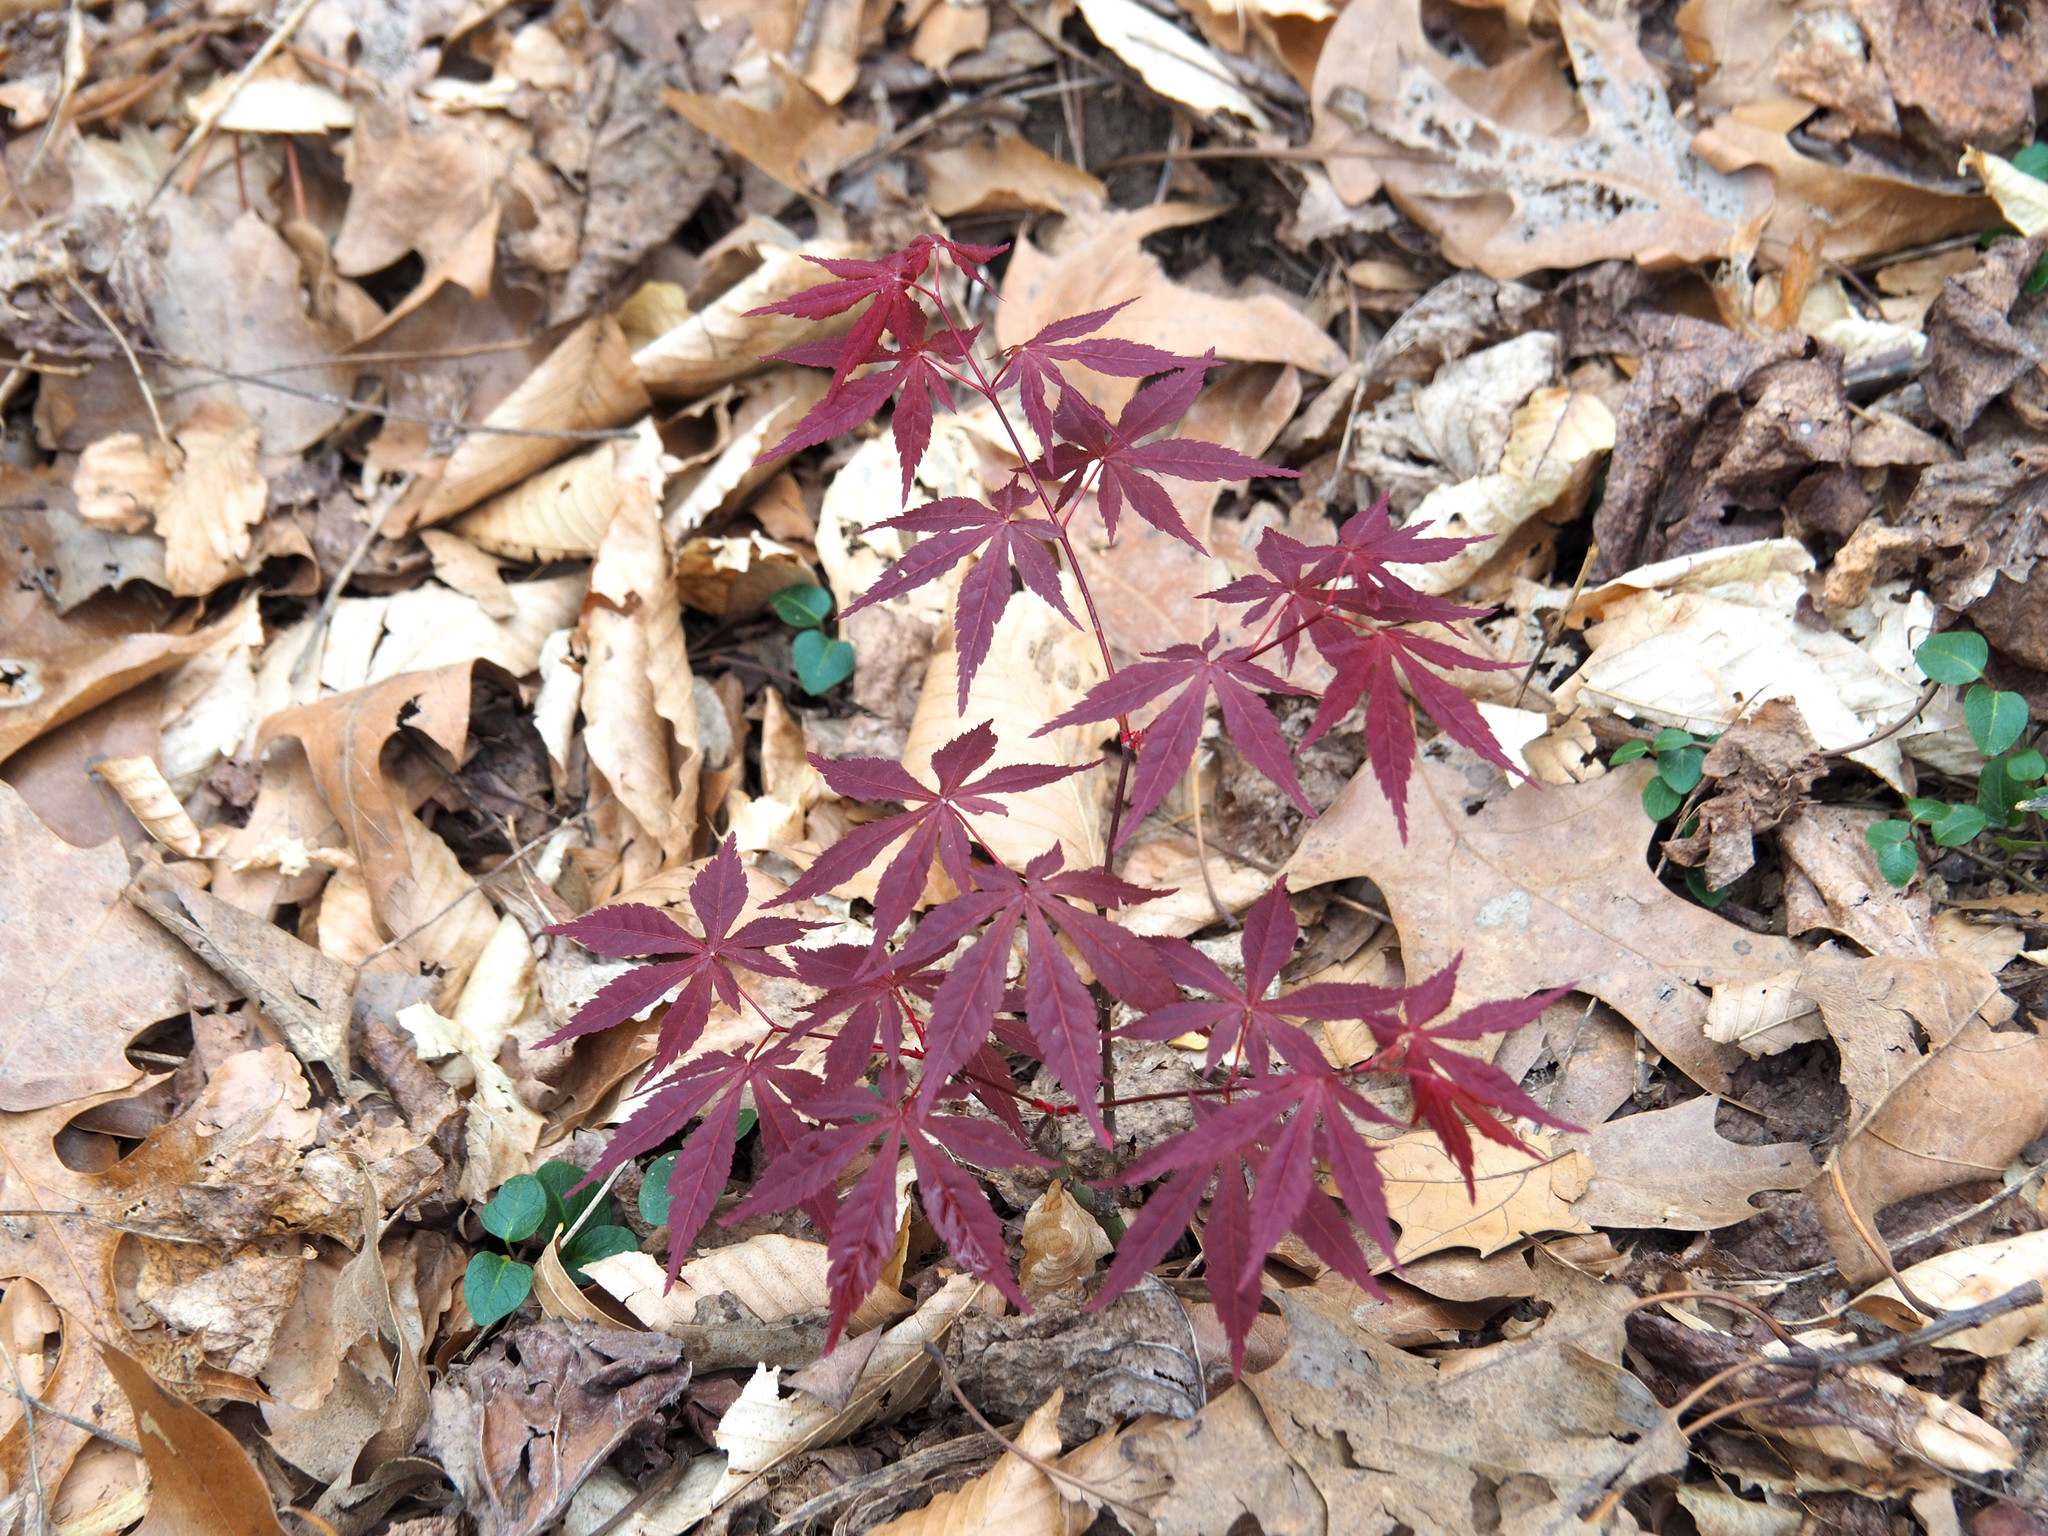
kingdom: Plantae
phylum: Tracheophyta
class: Magnoliopsida
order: Sapindales
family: Sapindaceae
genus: Acer
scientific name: Acer palmatum
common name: Japanese maple
